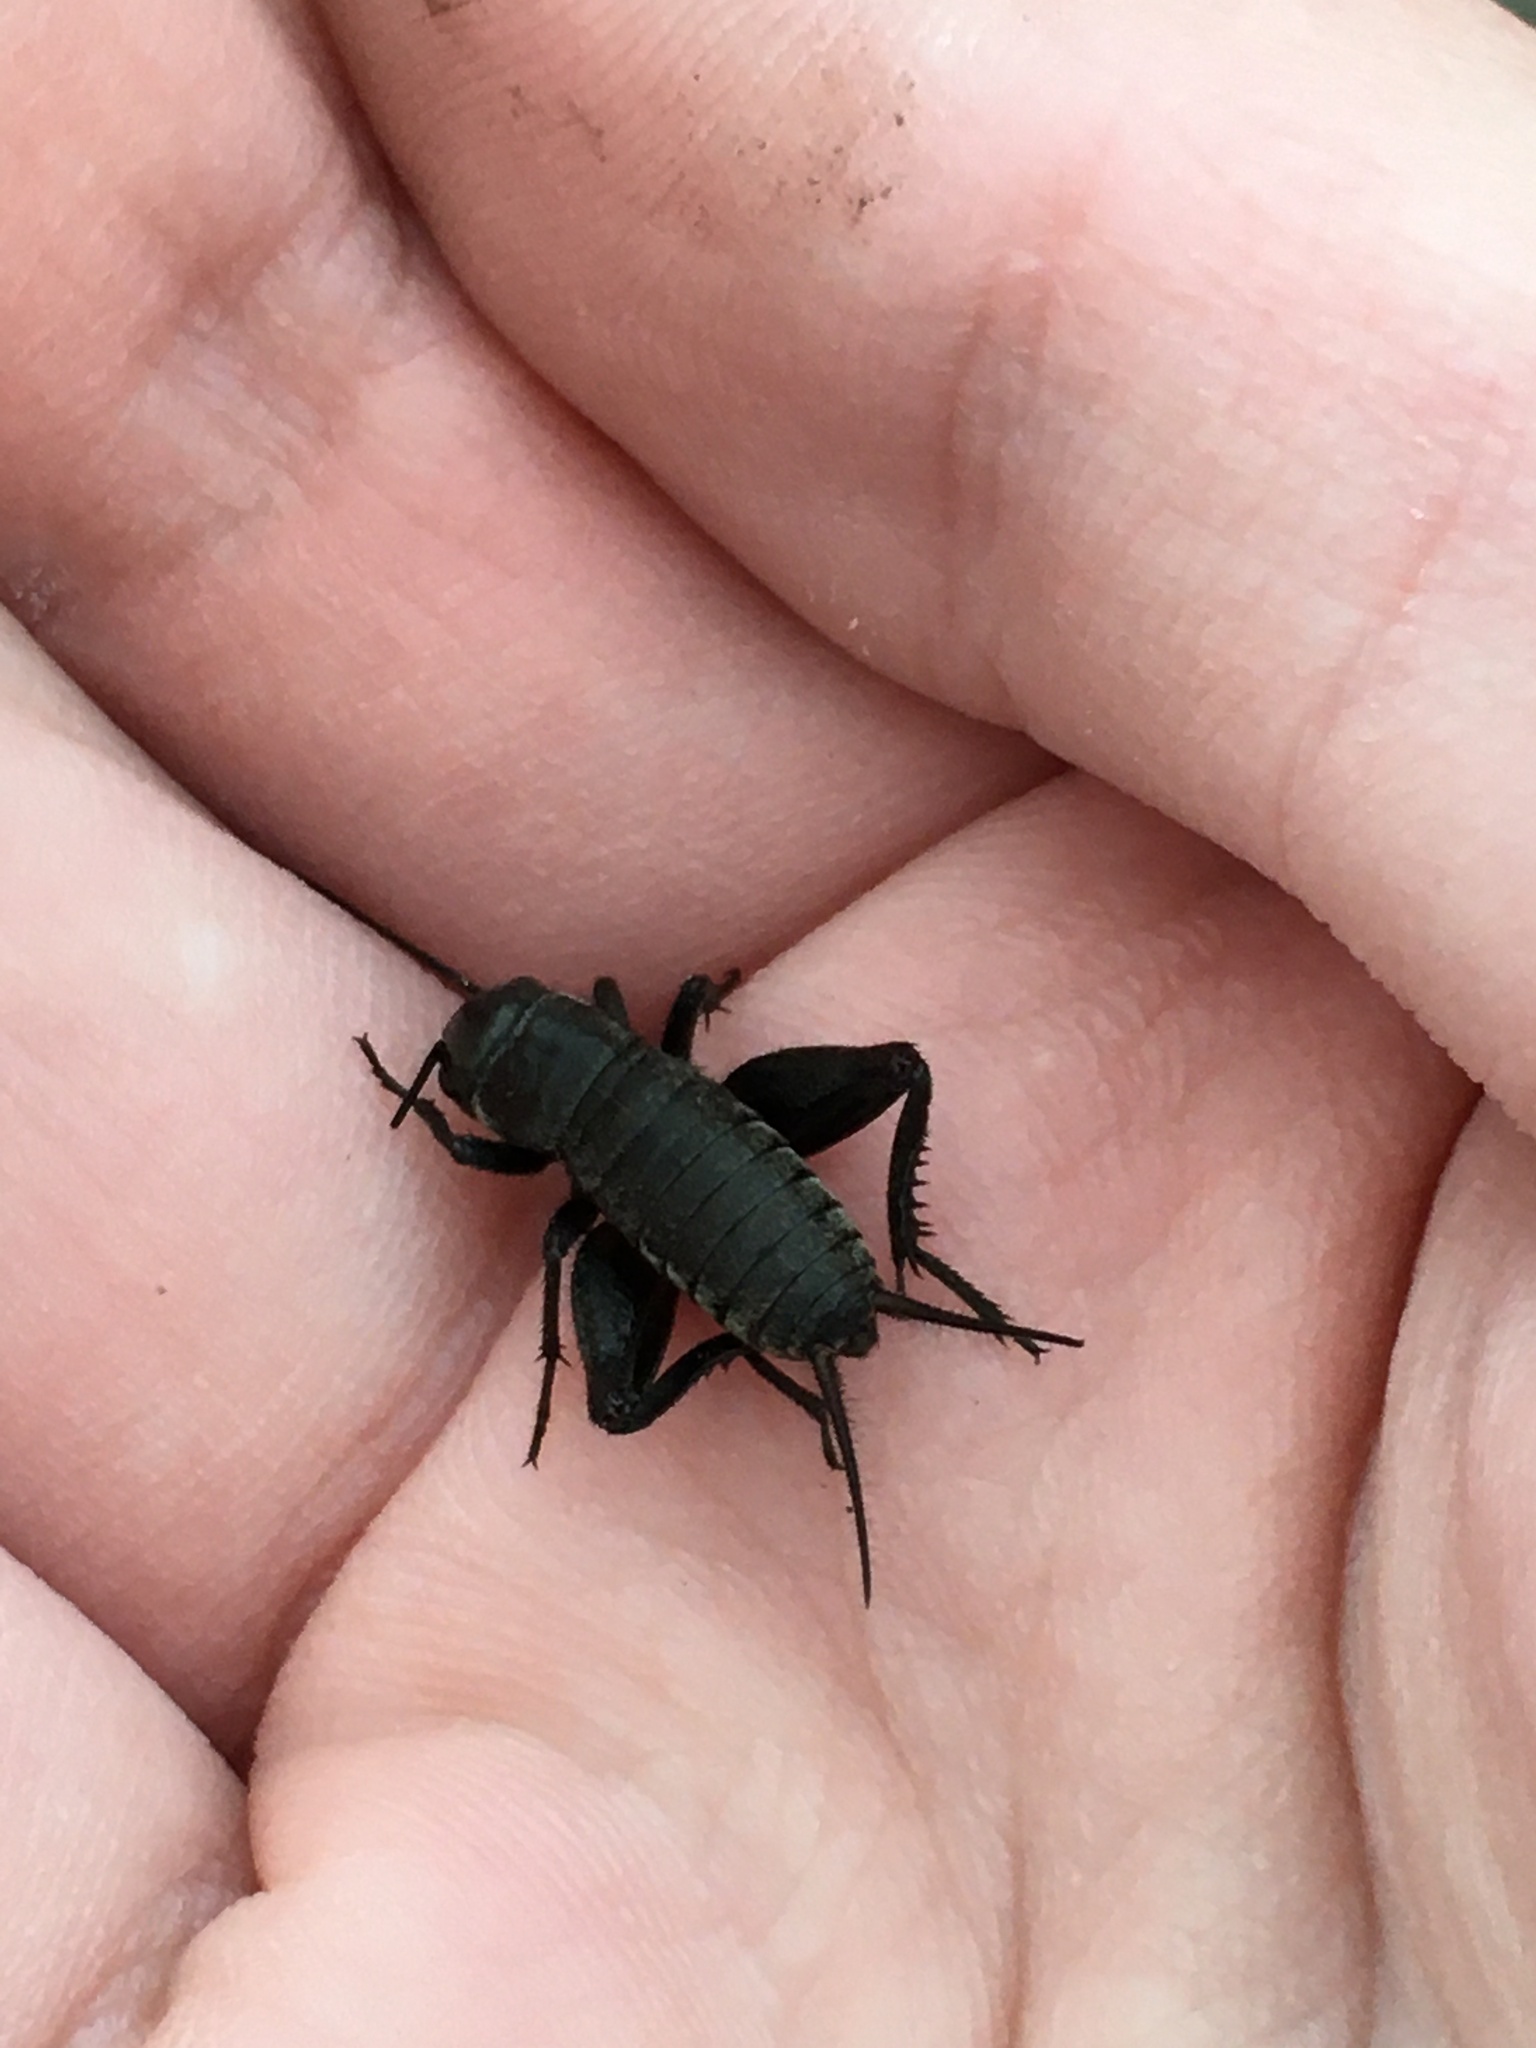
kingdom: Animalia
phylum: Arthropoda
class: Insecta
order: Orthoptera
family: Gryllidae
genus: Gryllus
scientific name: Gryllus veletis
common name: Spring field cricket
